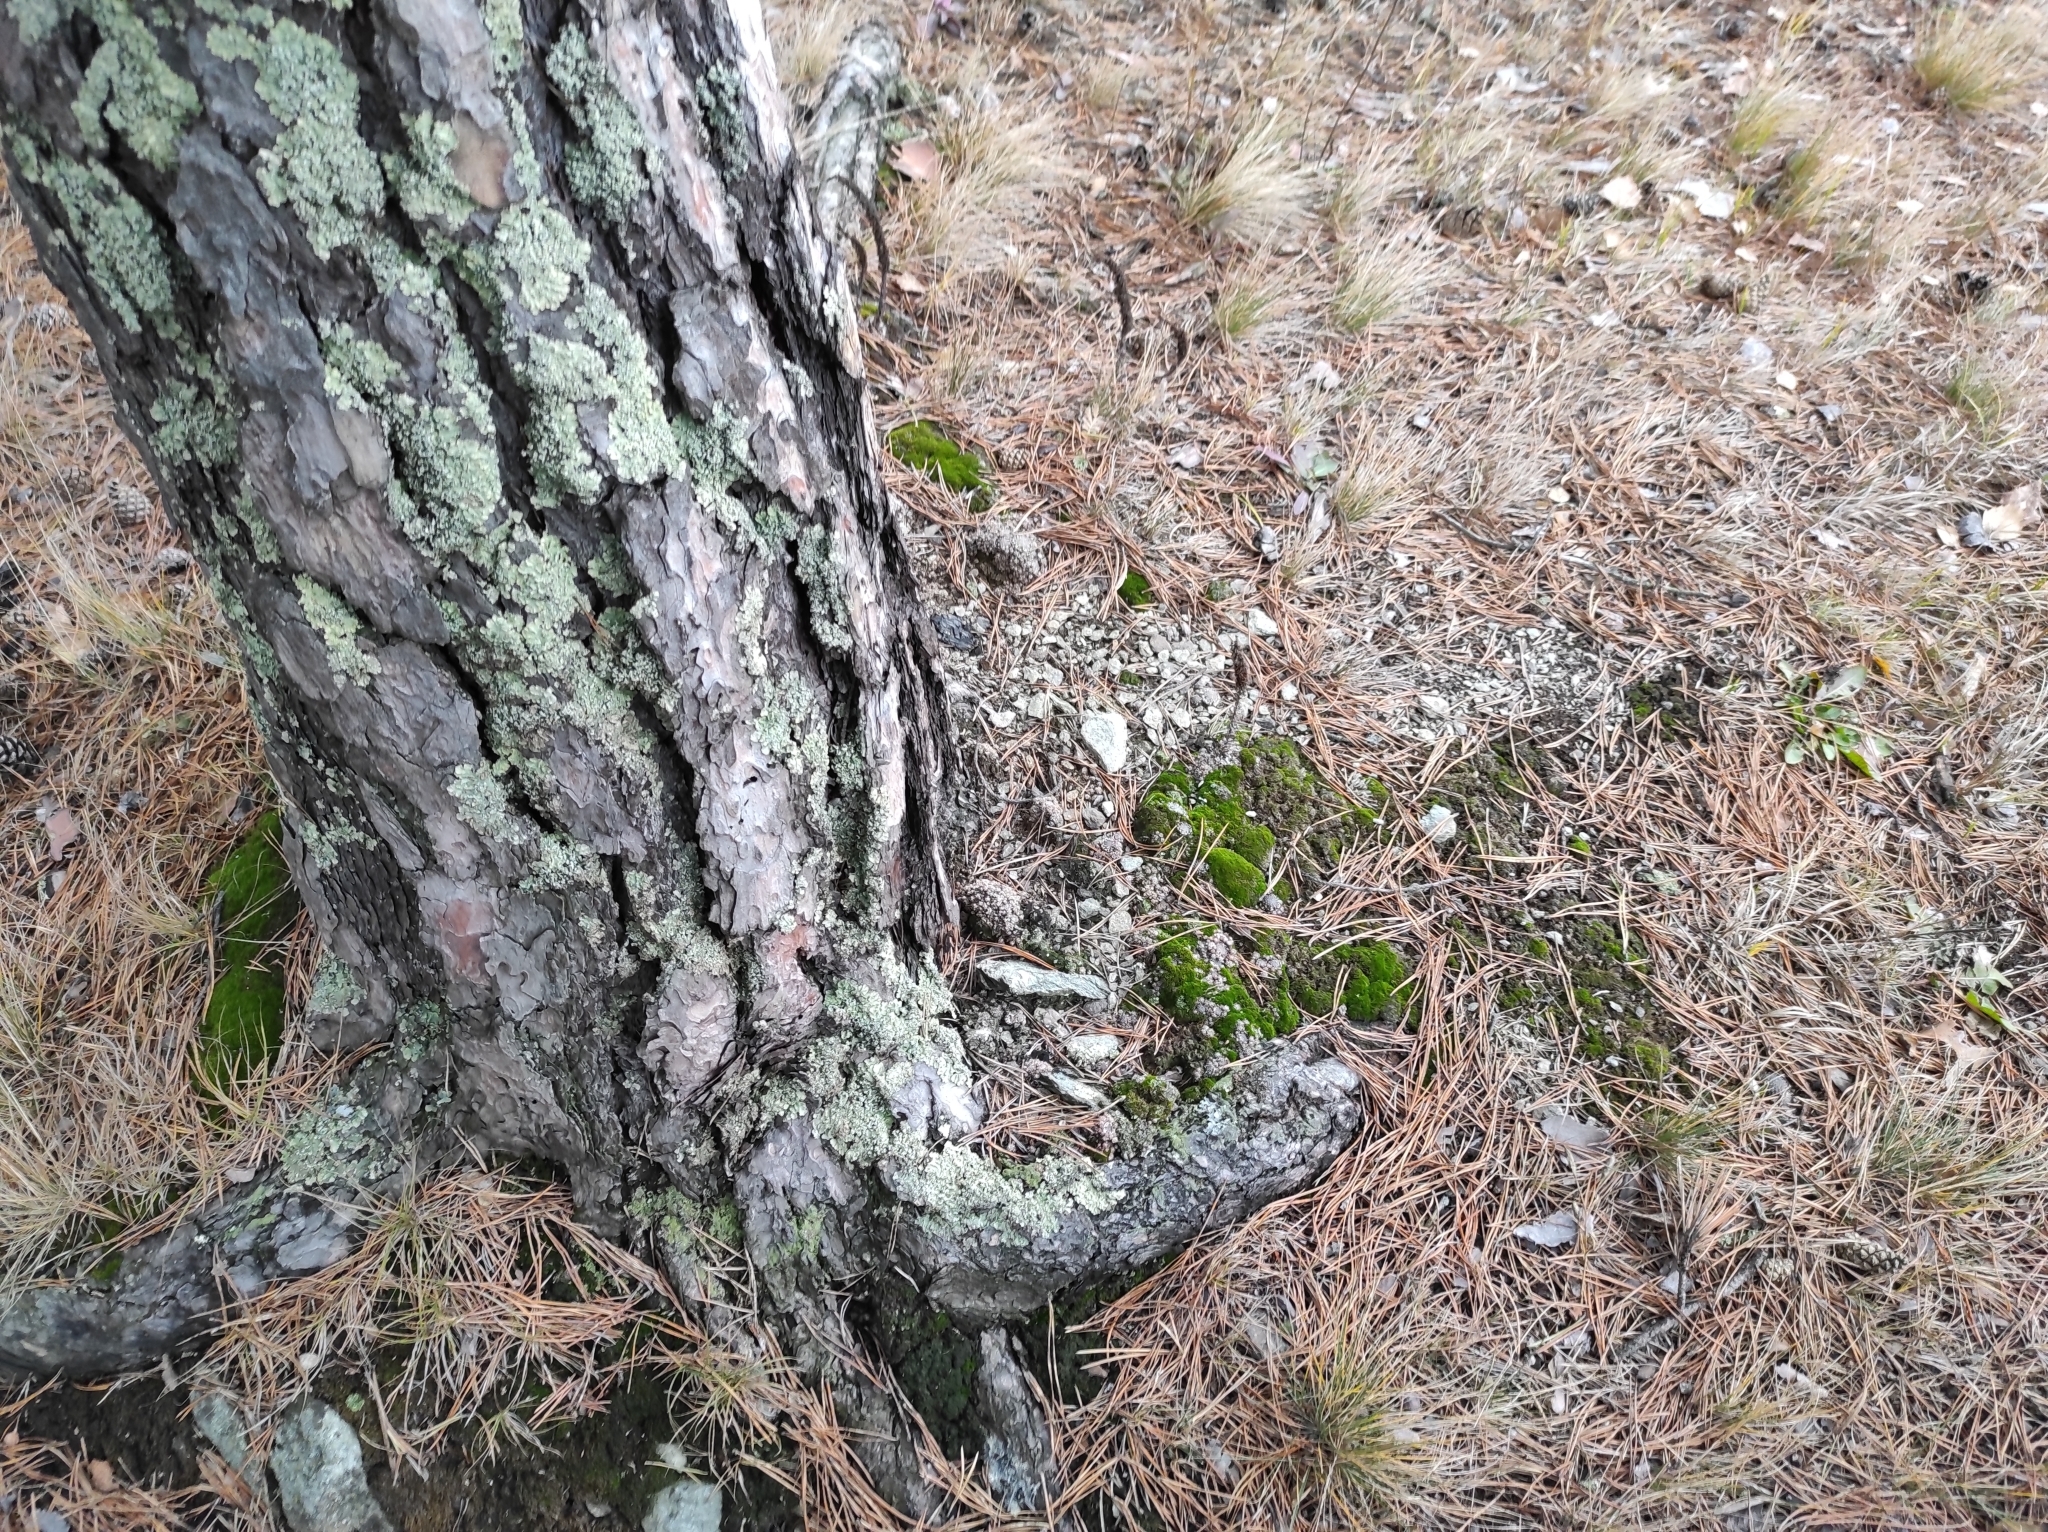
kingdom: Plantae
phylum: Tracheophyta
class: Pinopsida
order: Pinales
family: Pinaceae
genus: Pinus
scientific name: Pinus sylvestris
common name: Scots pine
